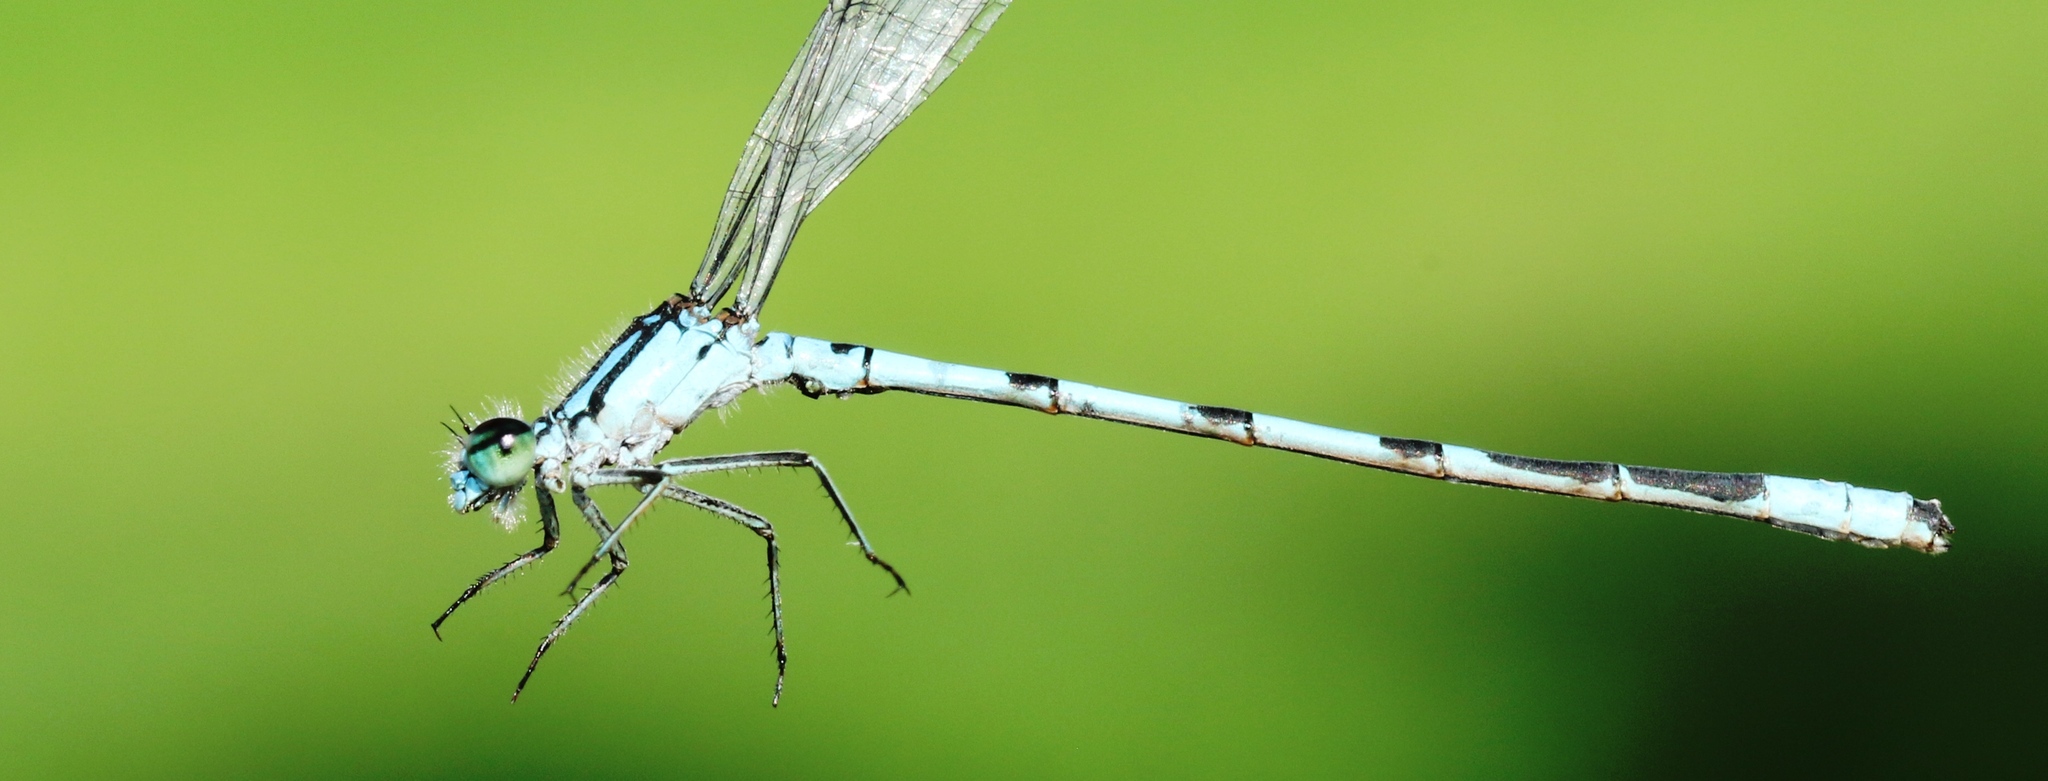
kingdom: Animalia
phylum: Arthropoda
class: Insecta
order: Odonata
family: Coenagrionidae
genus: Enallagma
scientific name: Enallagma hageni
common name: Hagen's bluet
